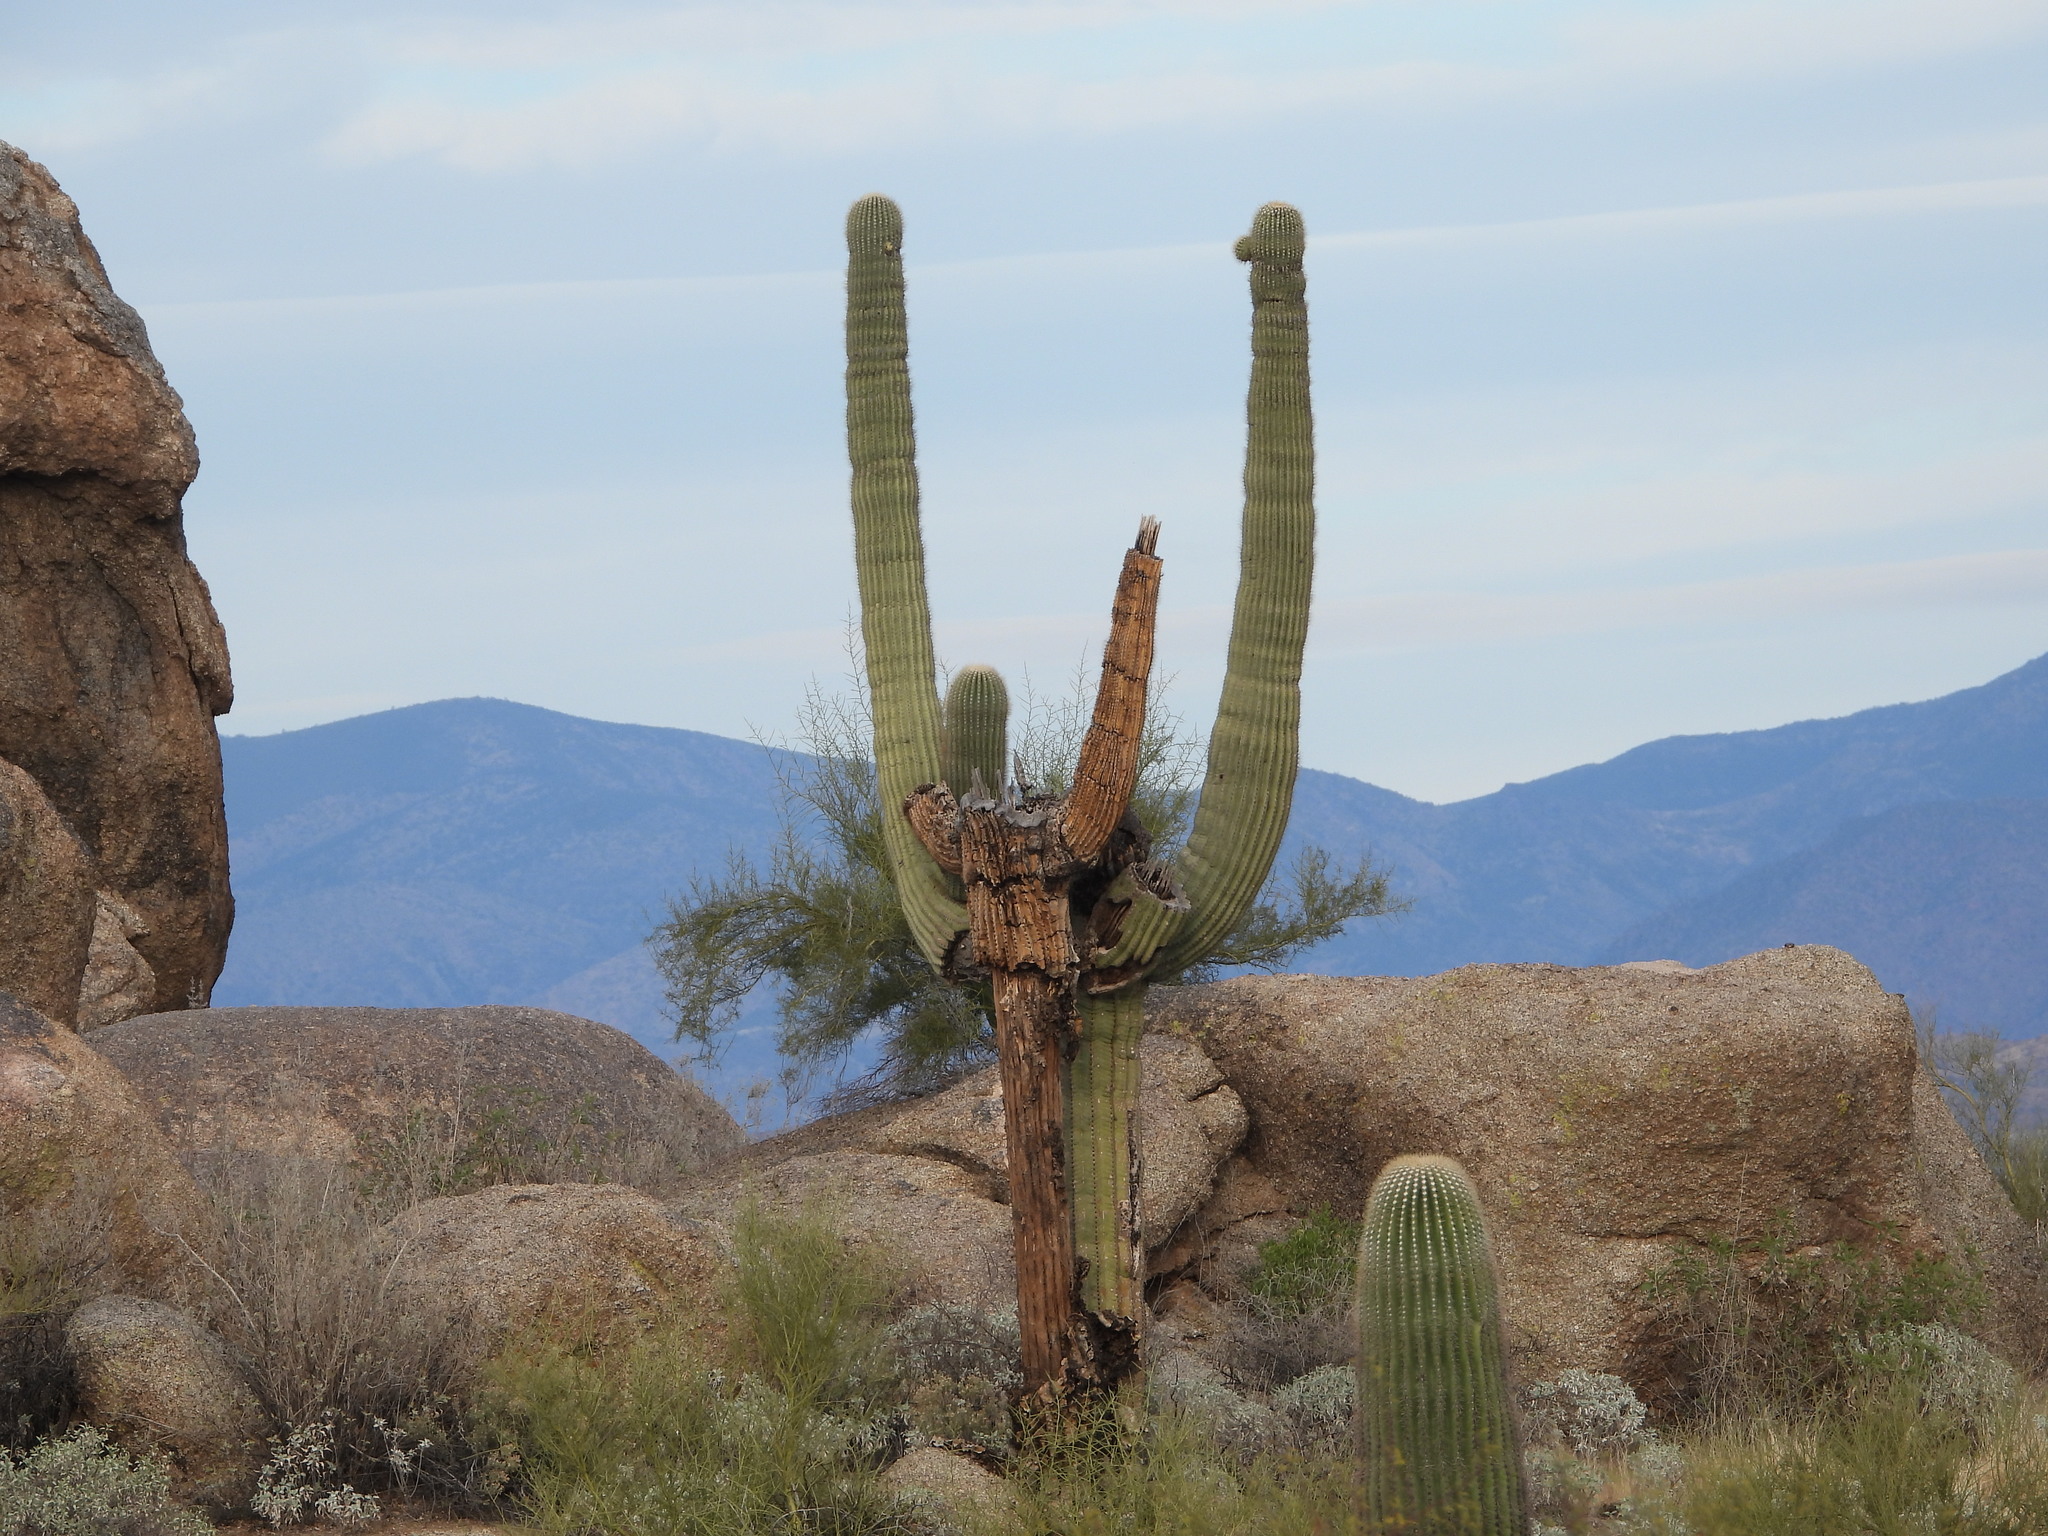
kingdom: Plantae
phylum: Tracheophyta
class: Magnoliopsida
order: Caryophyllales
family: Cactaceae
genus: Carnegiea
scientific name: Carnegiea gigantea
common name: Saguaro
